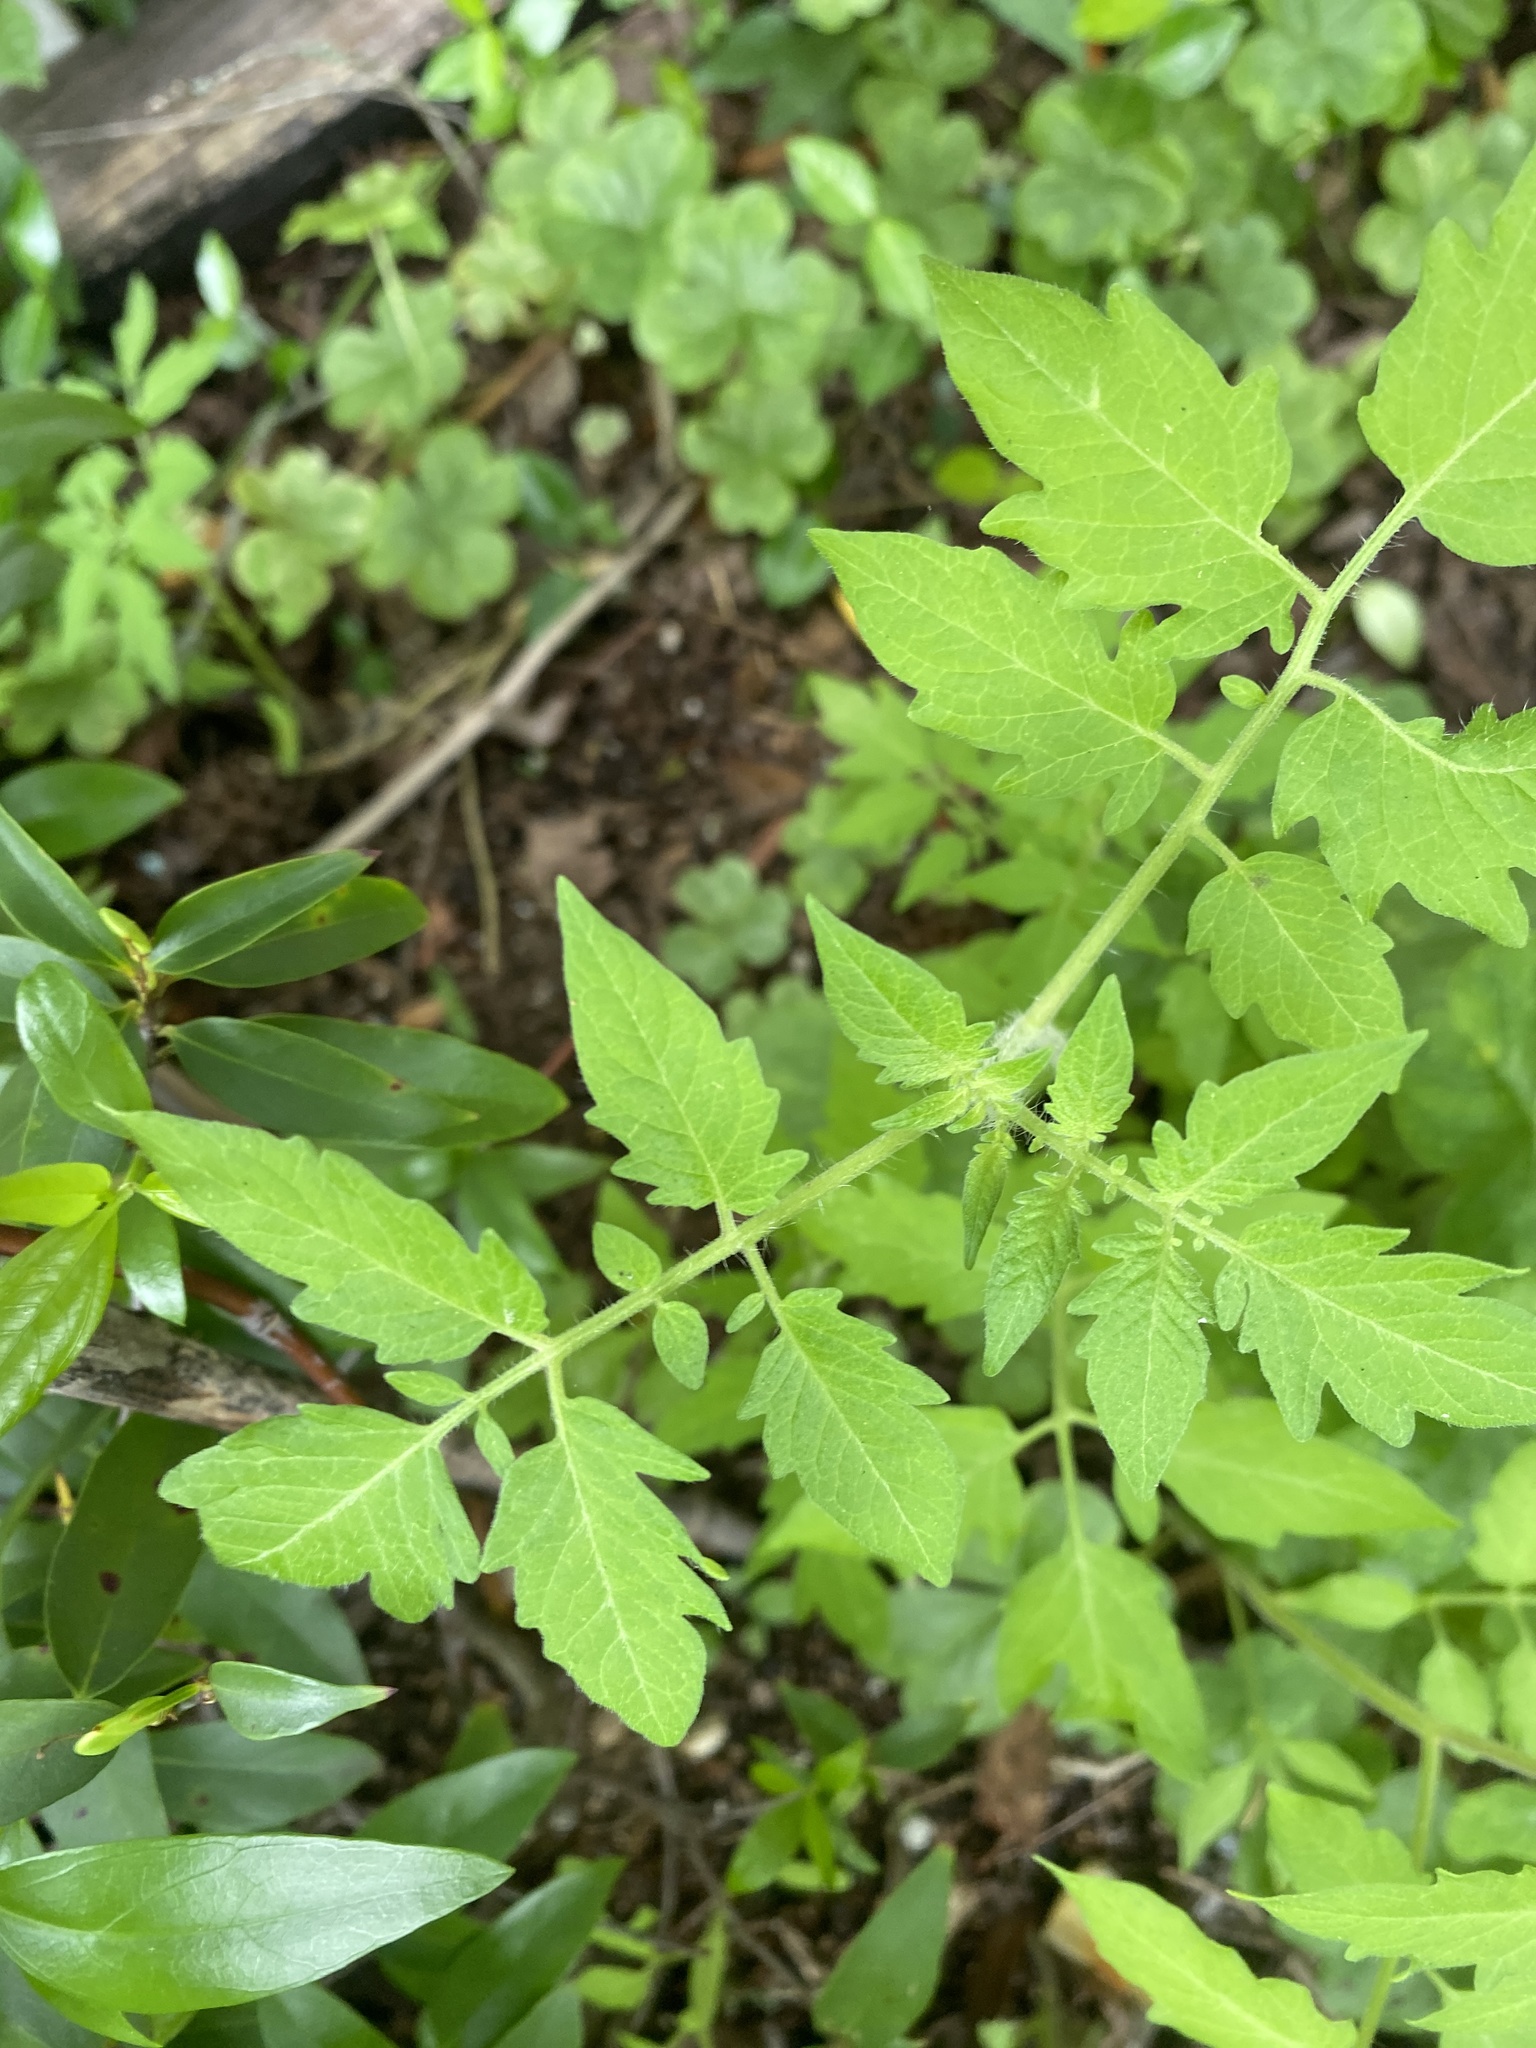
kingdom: Plantae
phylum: Tracheophyta
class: Magnoliopsida
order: Solanales
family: Solanaceae
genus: Solanum
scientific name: Solanum lycopersicum
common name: Garden tomato
